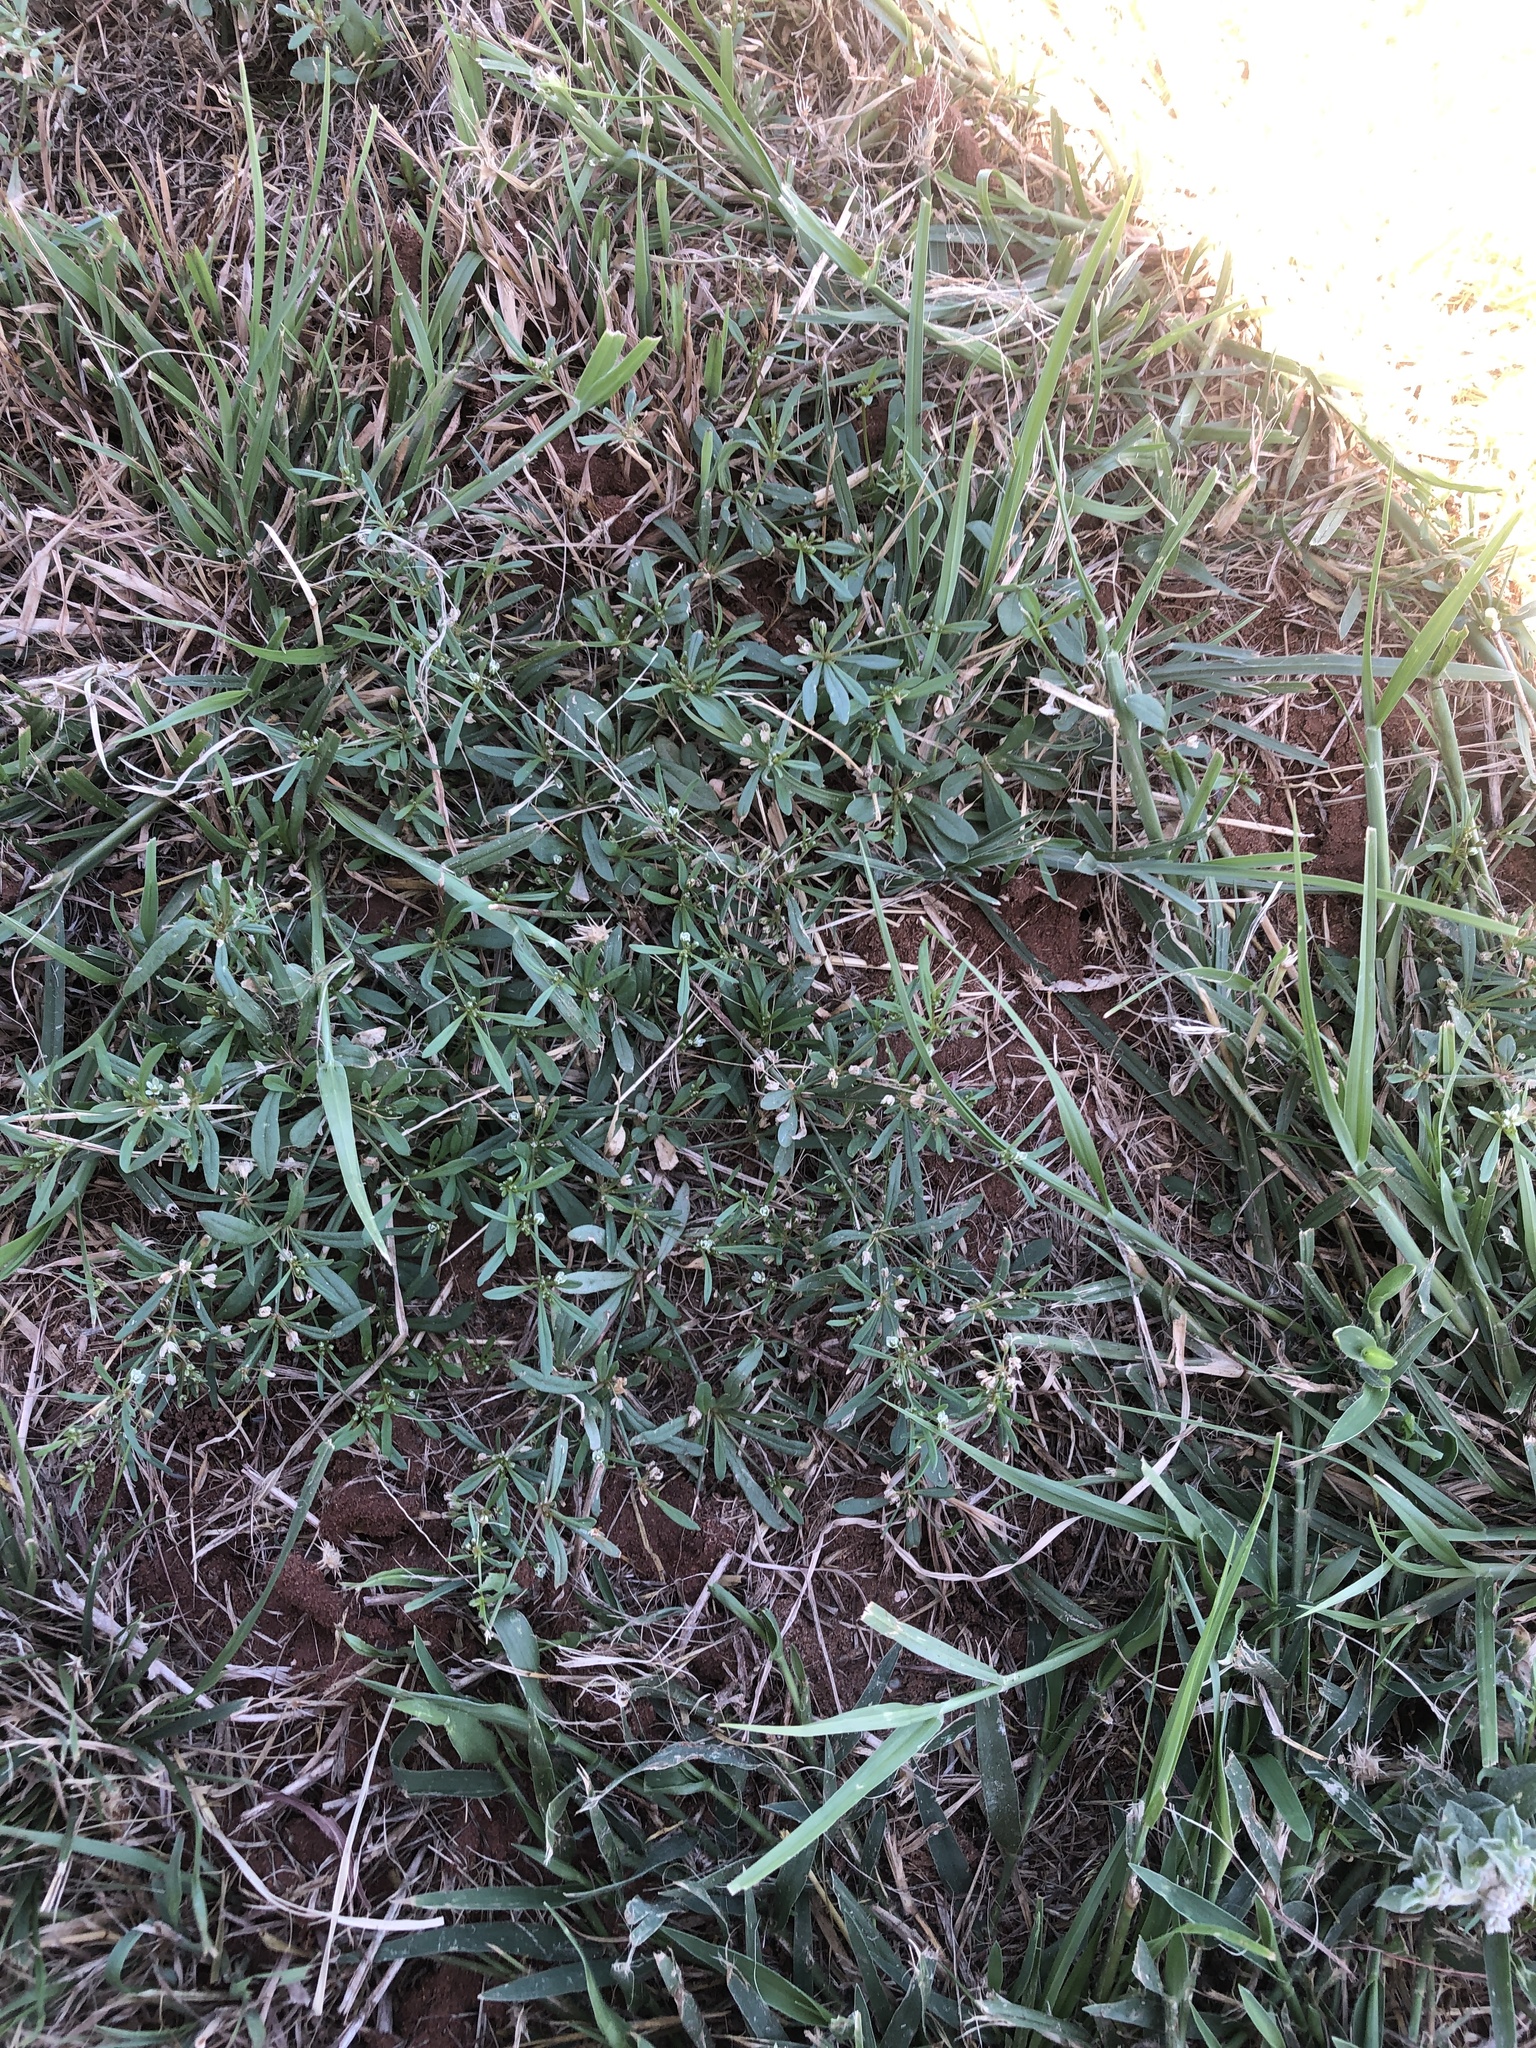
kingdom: Plantae
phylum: Tracheophyta
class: Magnoliopsida
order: Caryophyllales
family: Molluginaceae
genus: Mollugo
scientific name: Mollugo verticillata
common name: Green carpetweed
